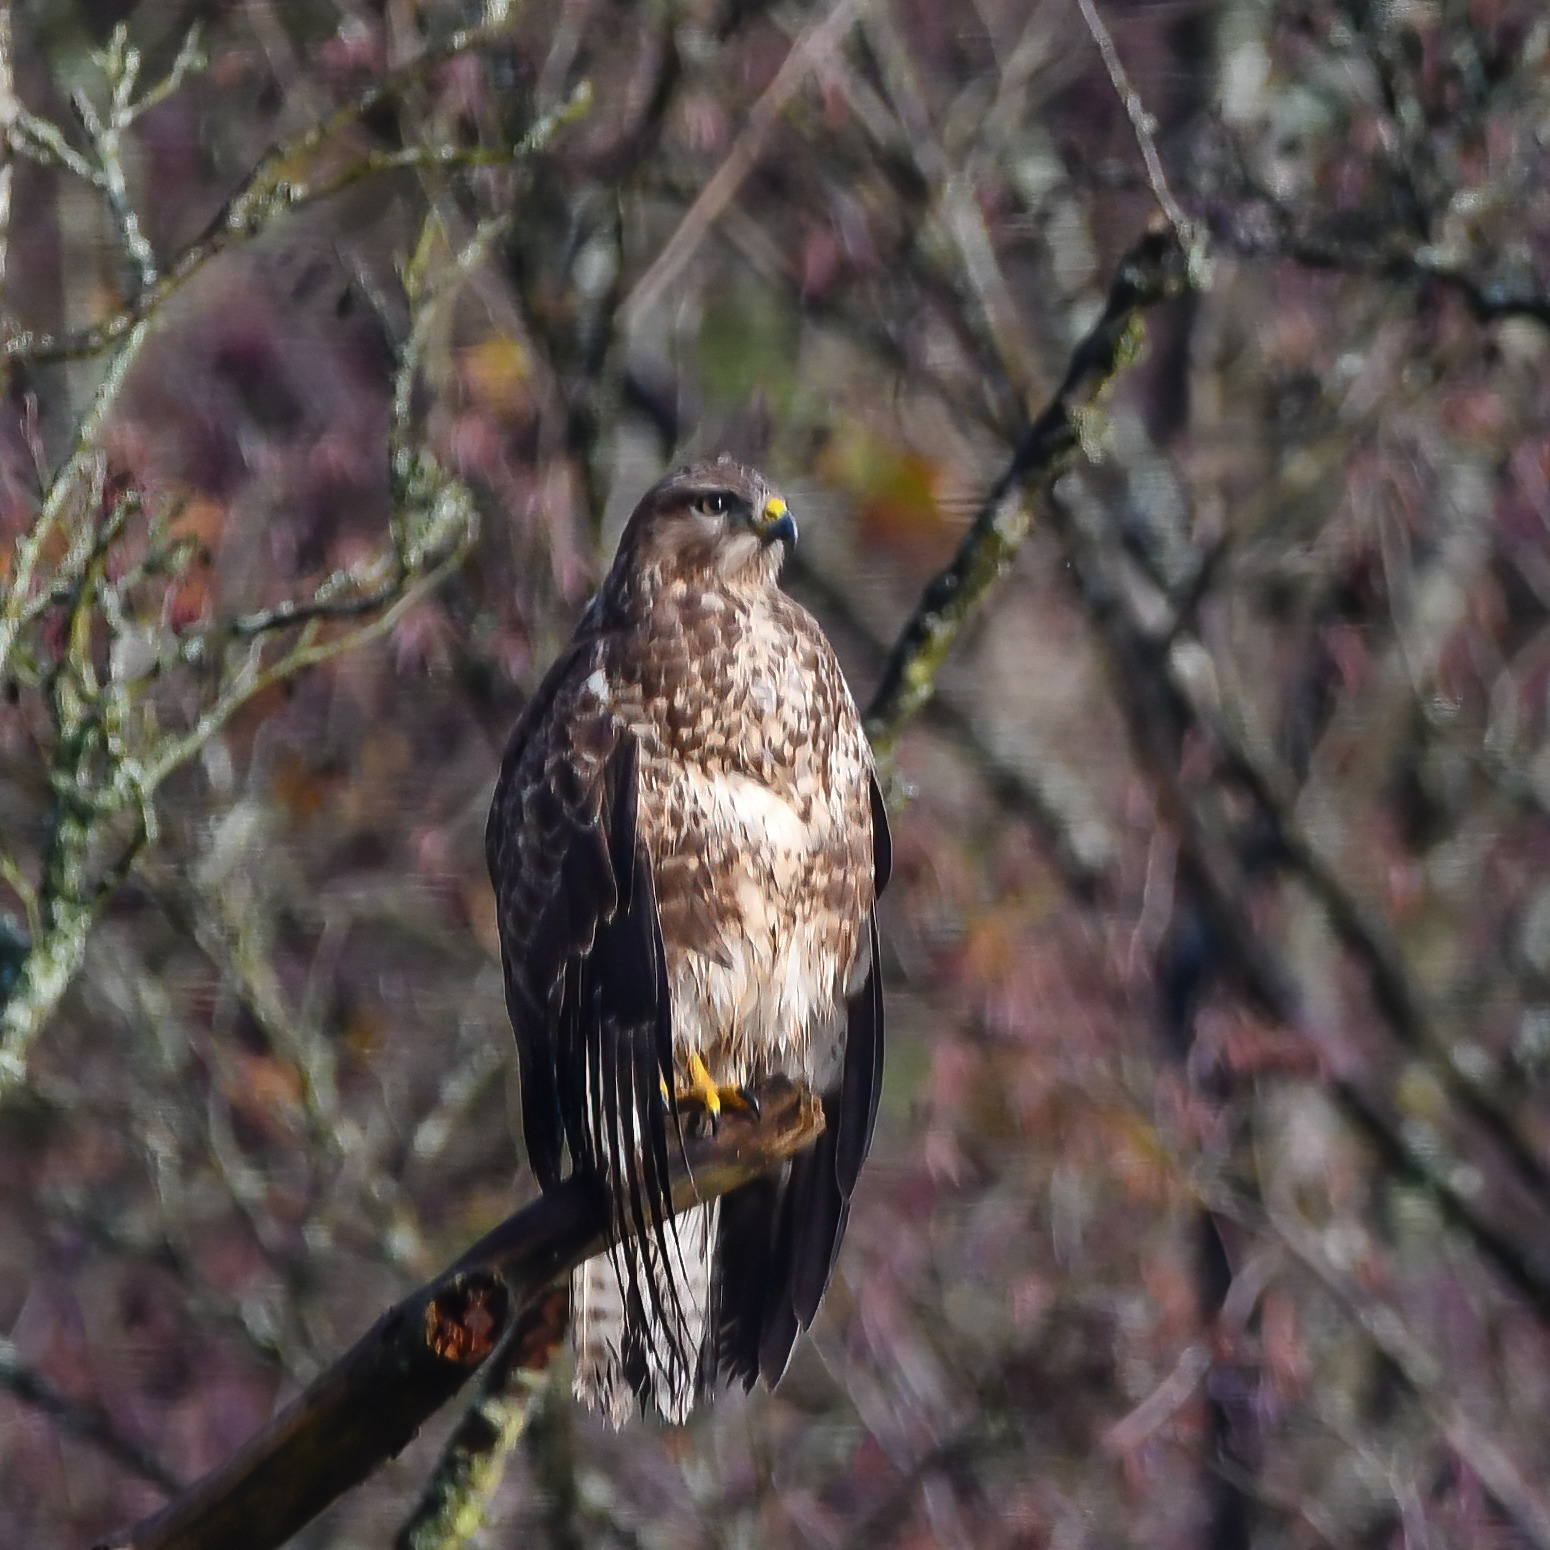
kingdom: Animalia
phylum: Chordata
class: Aves
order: Accipitriformes
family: Accipitridae
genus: Buteo
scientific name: Buteo buteo
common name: Common buzzard
